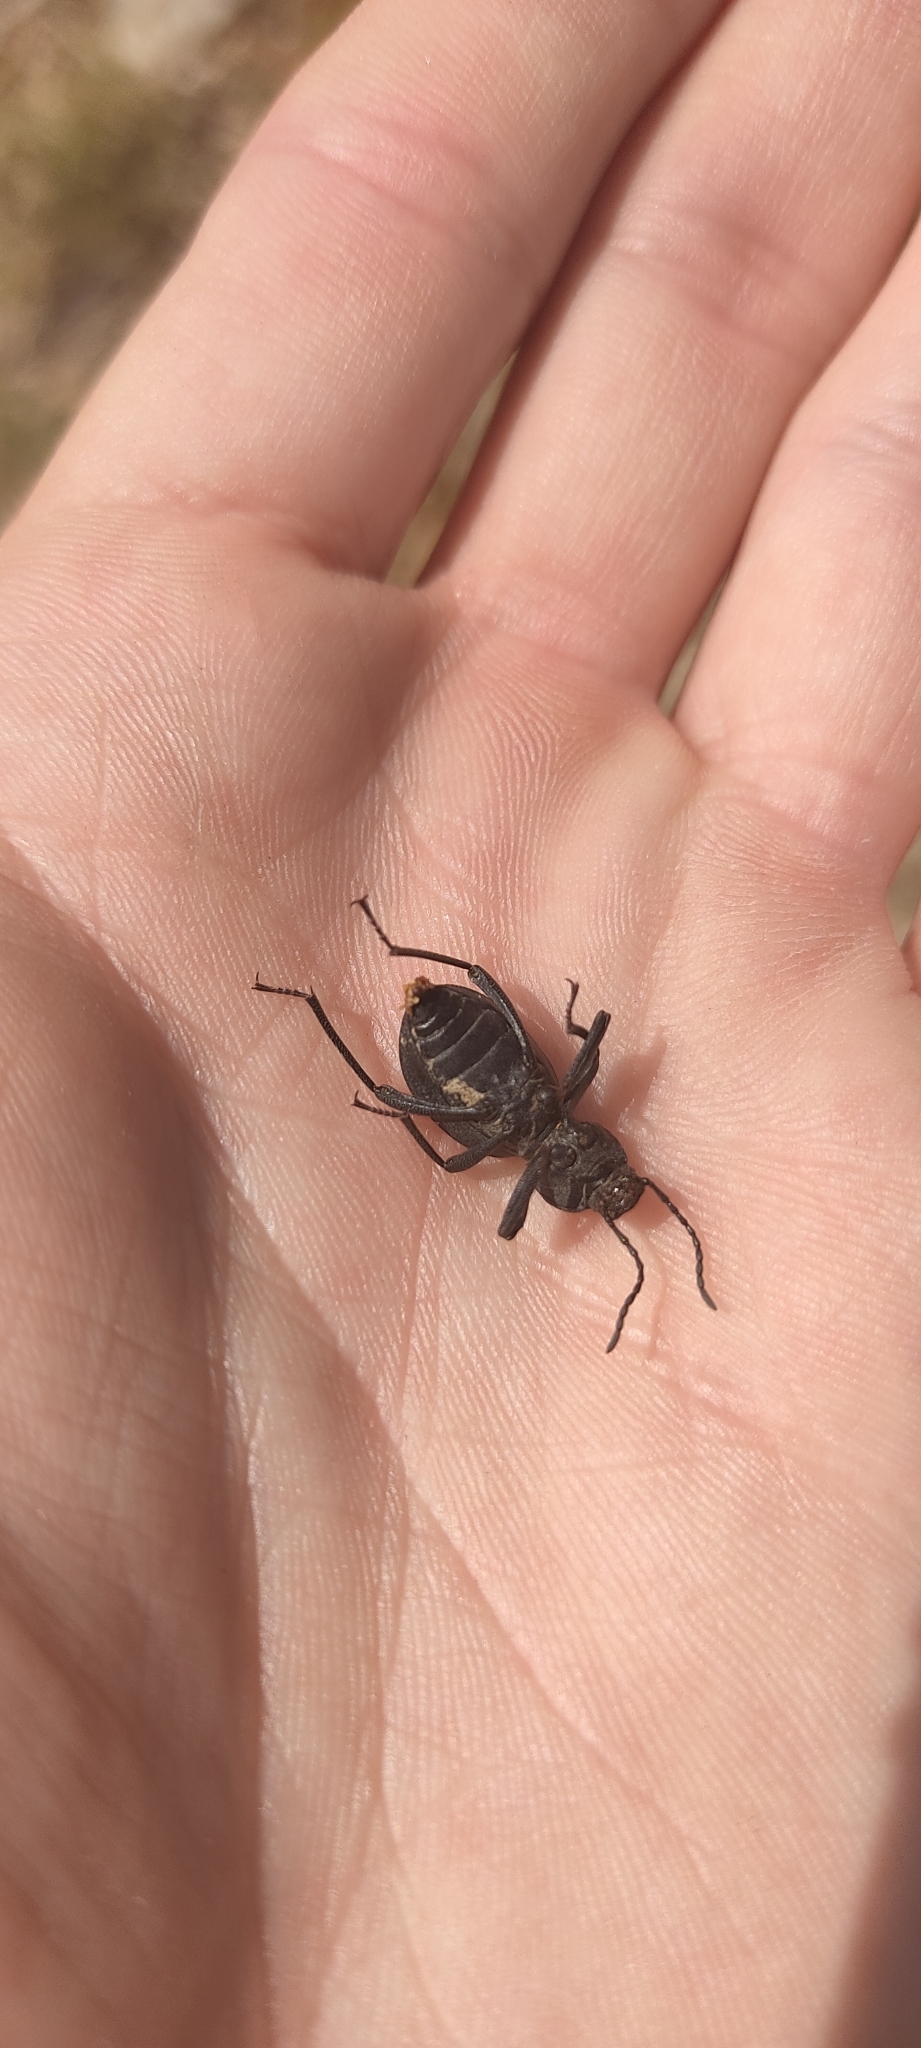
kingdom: Animalia
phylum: Arthropoda
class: Insecta
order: Coleoptera
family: Tenebrionidae
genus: Scaurus
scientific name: Scaurus tristis
